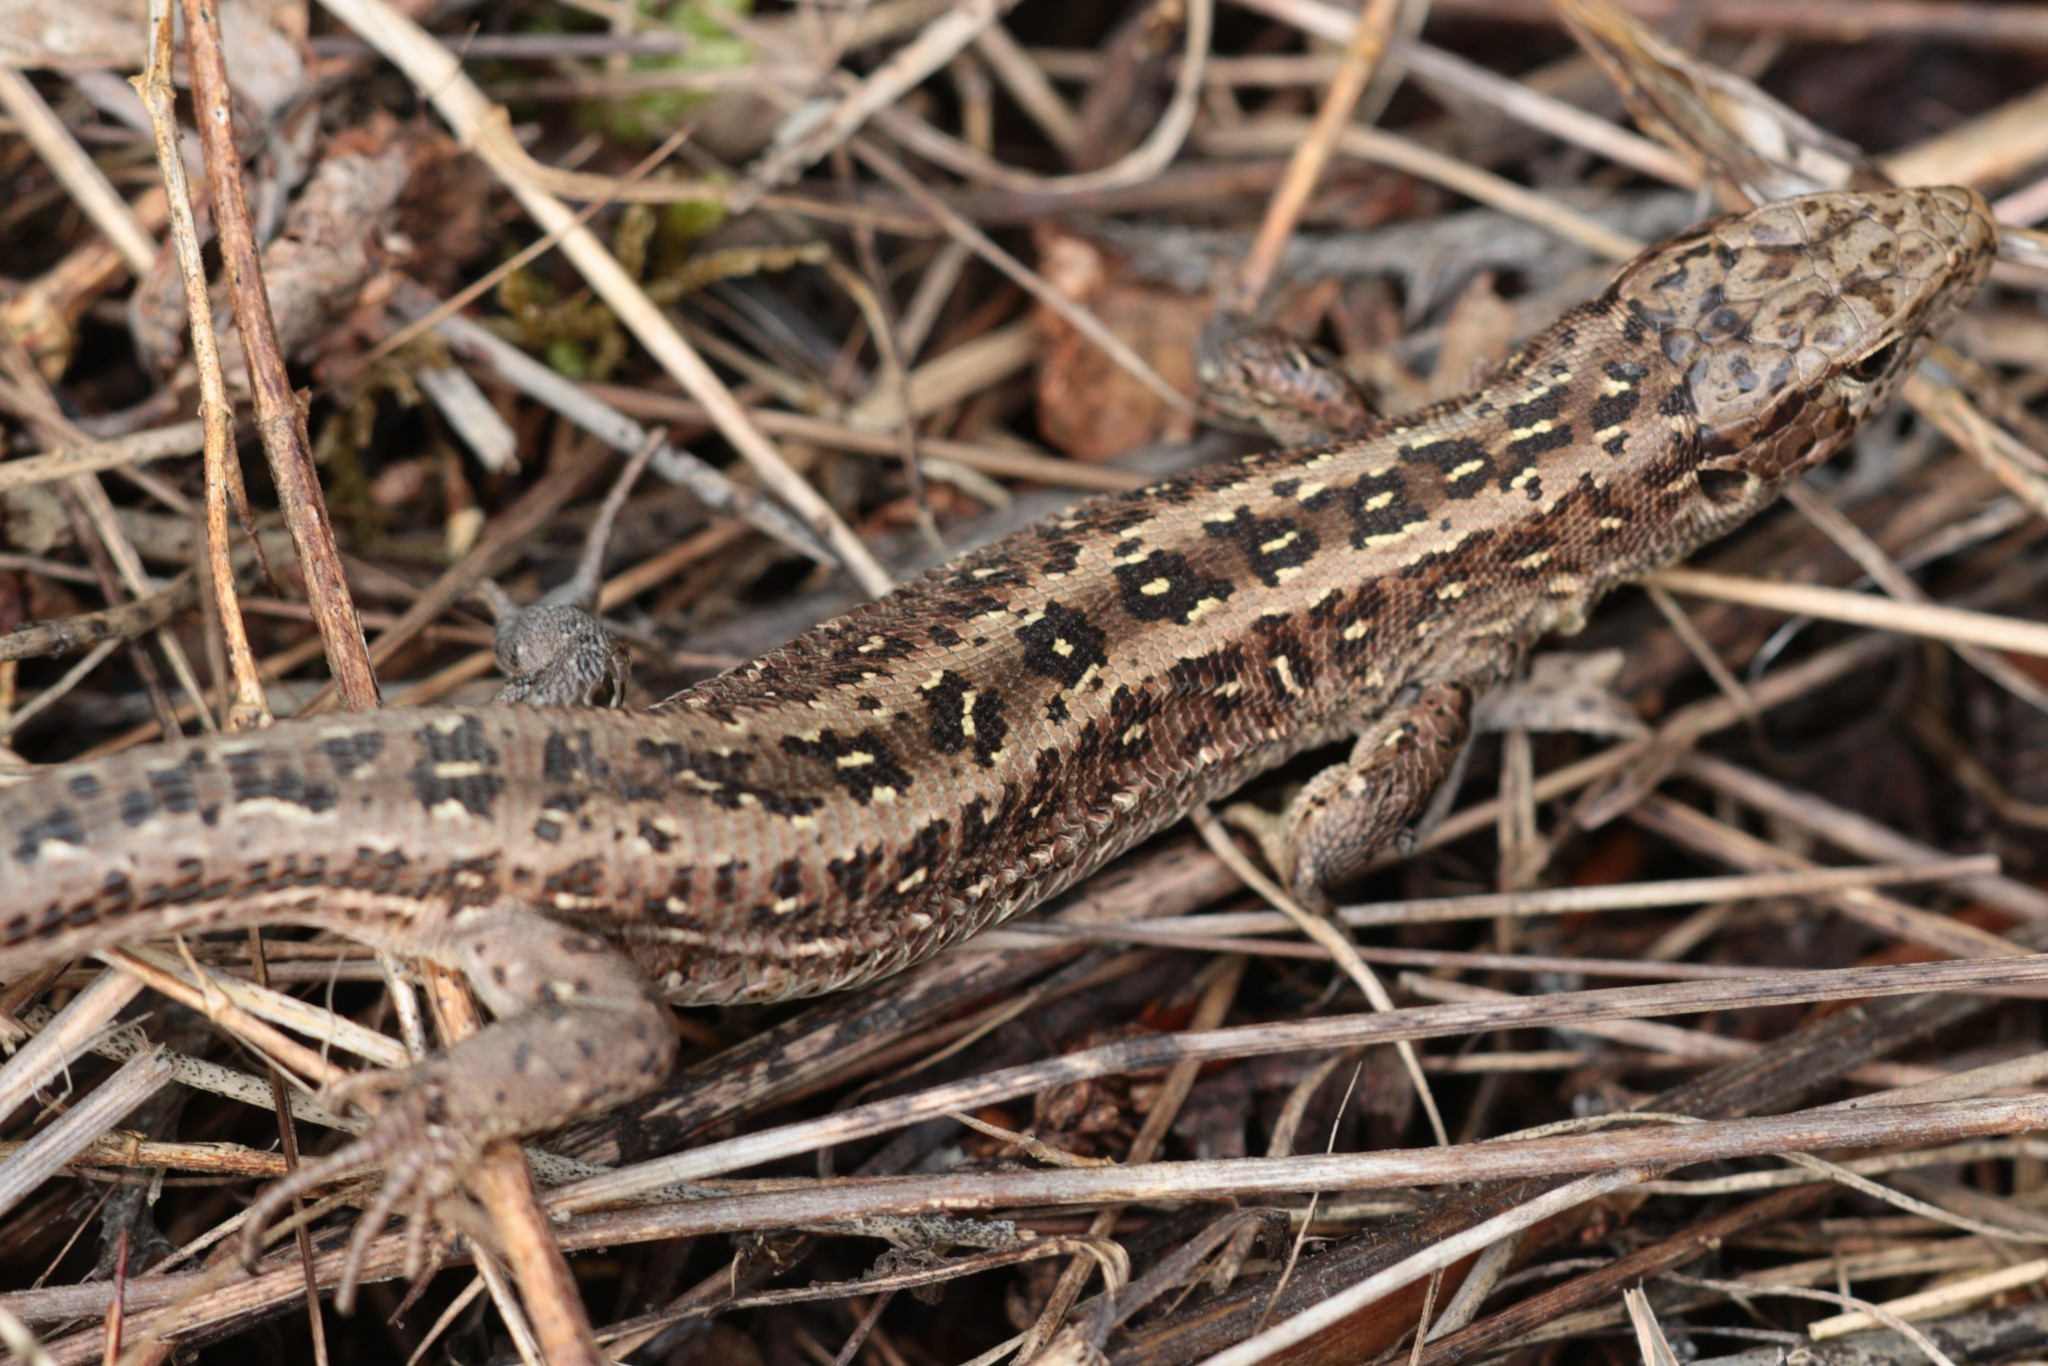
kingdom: Animalia
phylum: Chordata
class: Squamata
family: Lacertidae
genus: Lacerta
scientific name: Lacerta agilis
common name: Sand lizard
